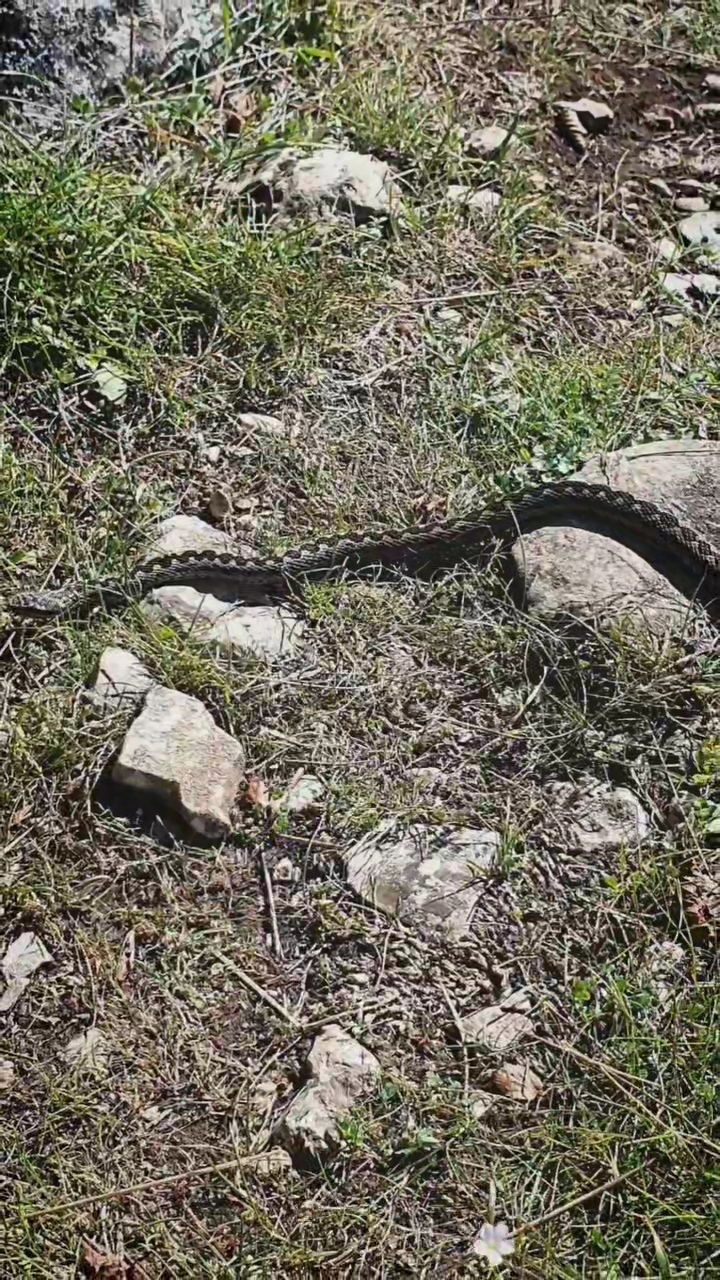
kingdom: Animalia
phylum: Chordata
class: Squamata
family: Viperidae
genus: Vipera
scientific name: Vipera renardi
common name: Eastern steppe viper
